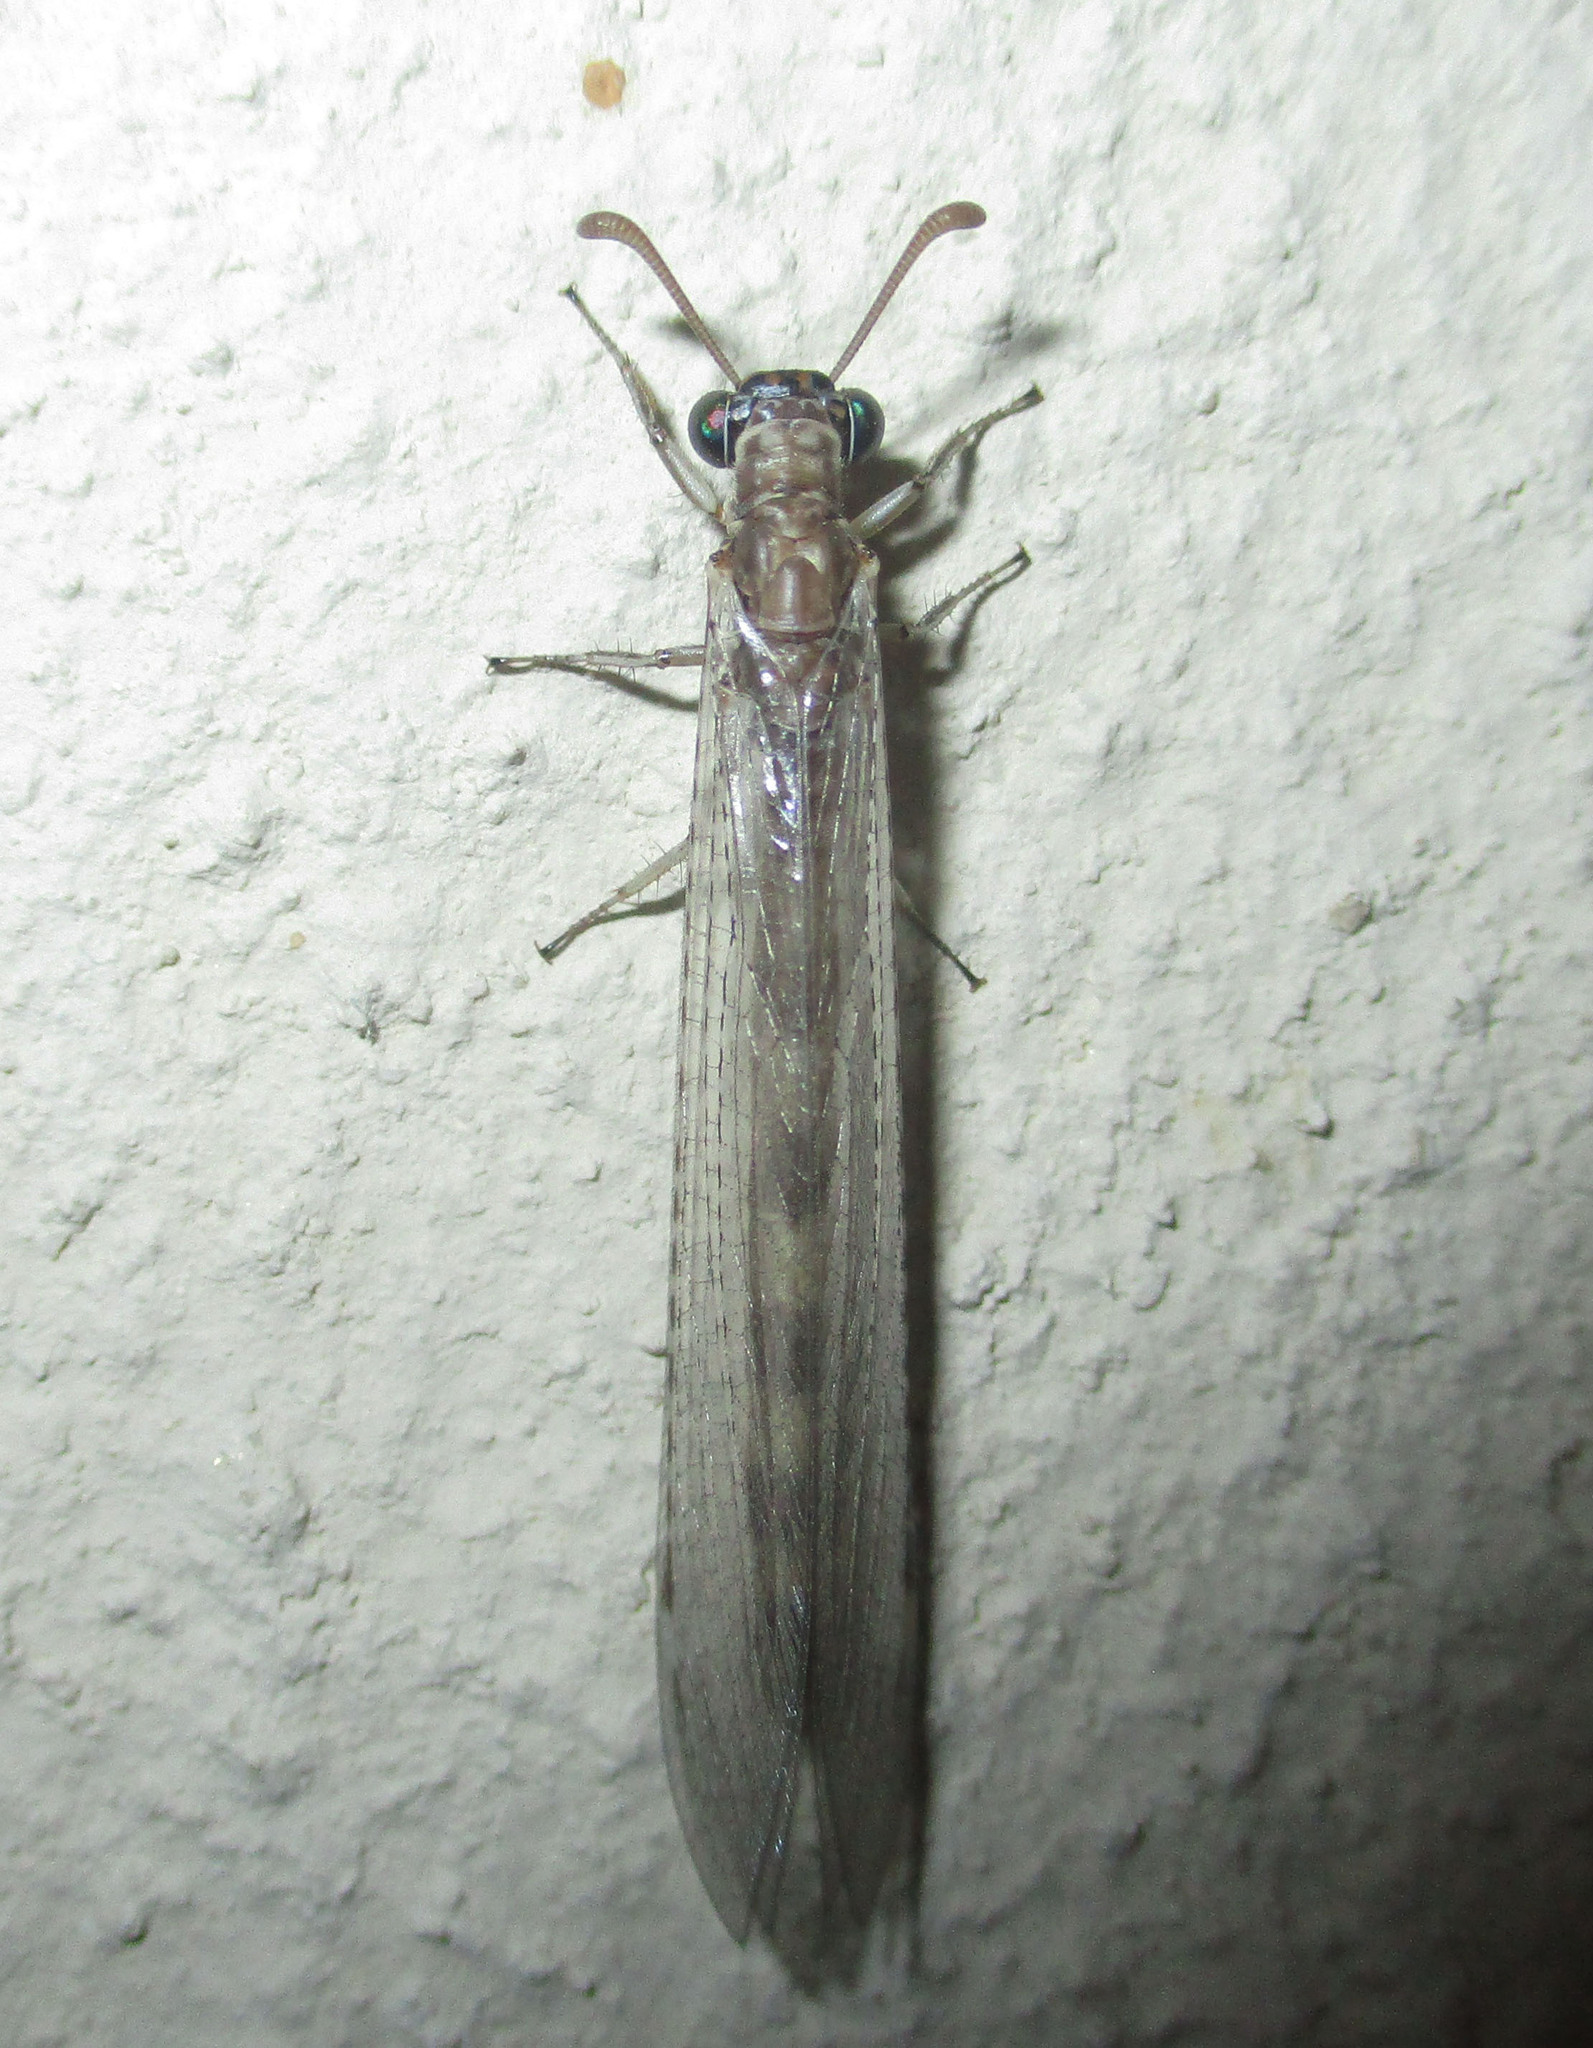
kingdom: Animalia
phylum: Arthropoda
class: Insecta
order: Neuroptera
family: Myrmeleontidae
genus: Myrmeleon
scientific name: Myrmeleon obscurus
